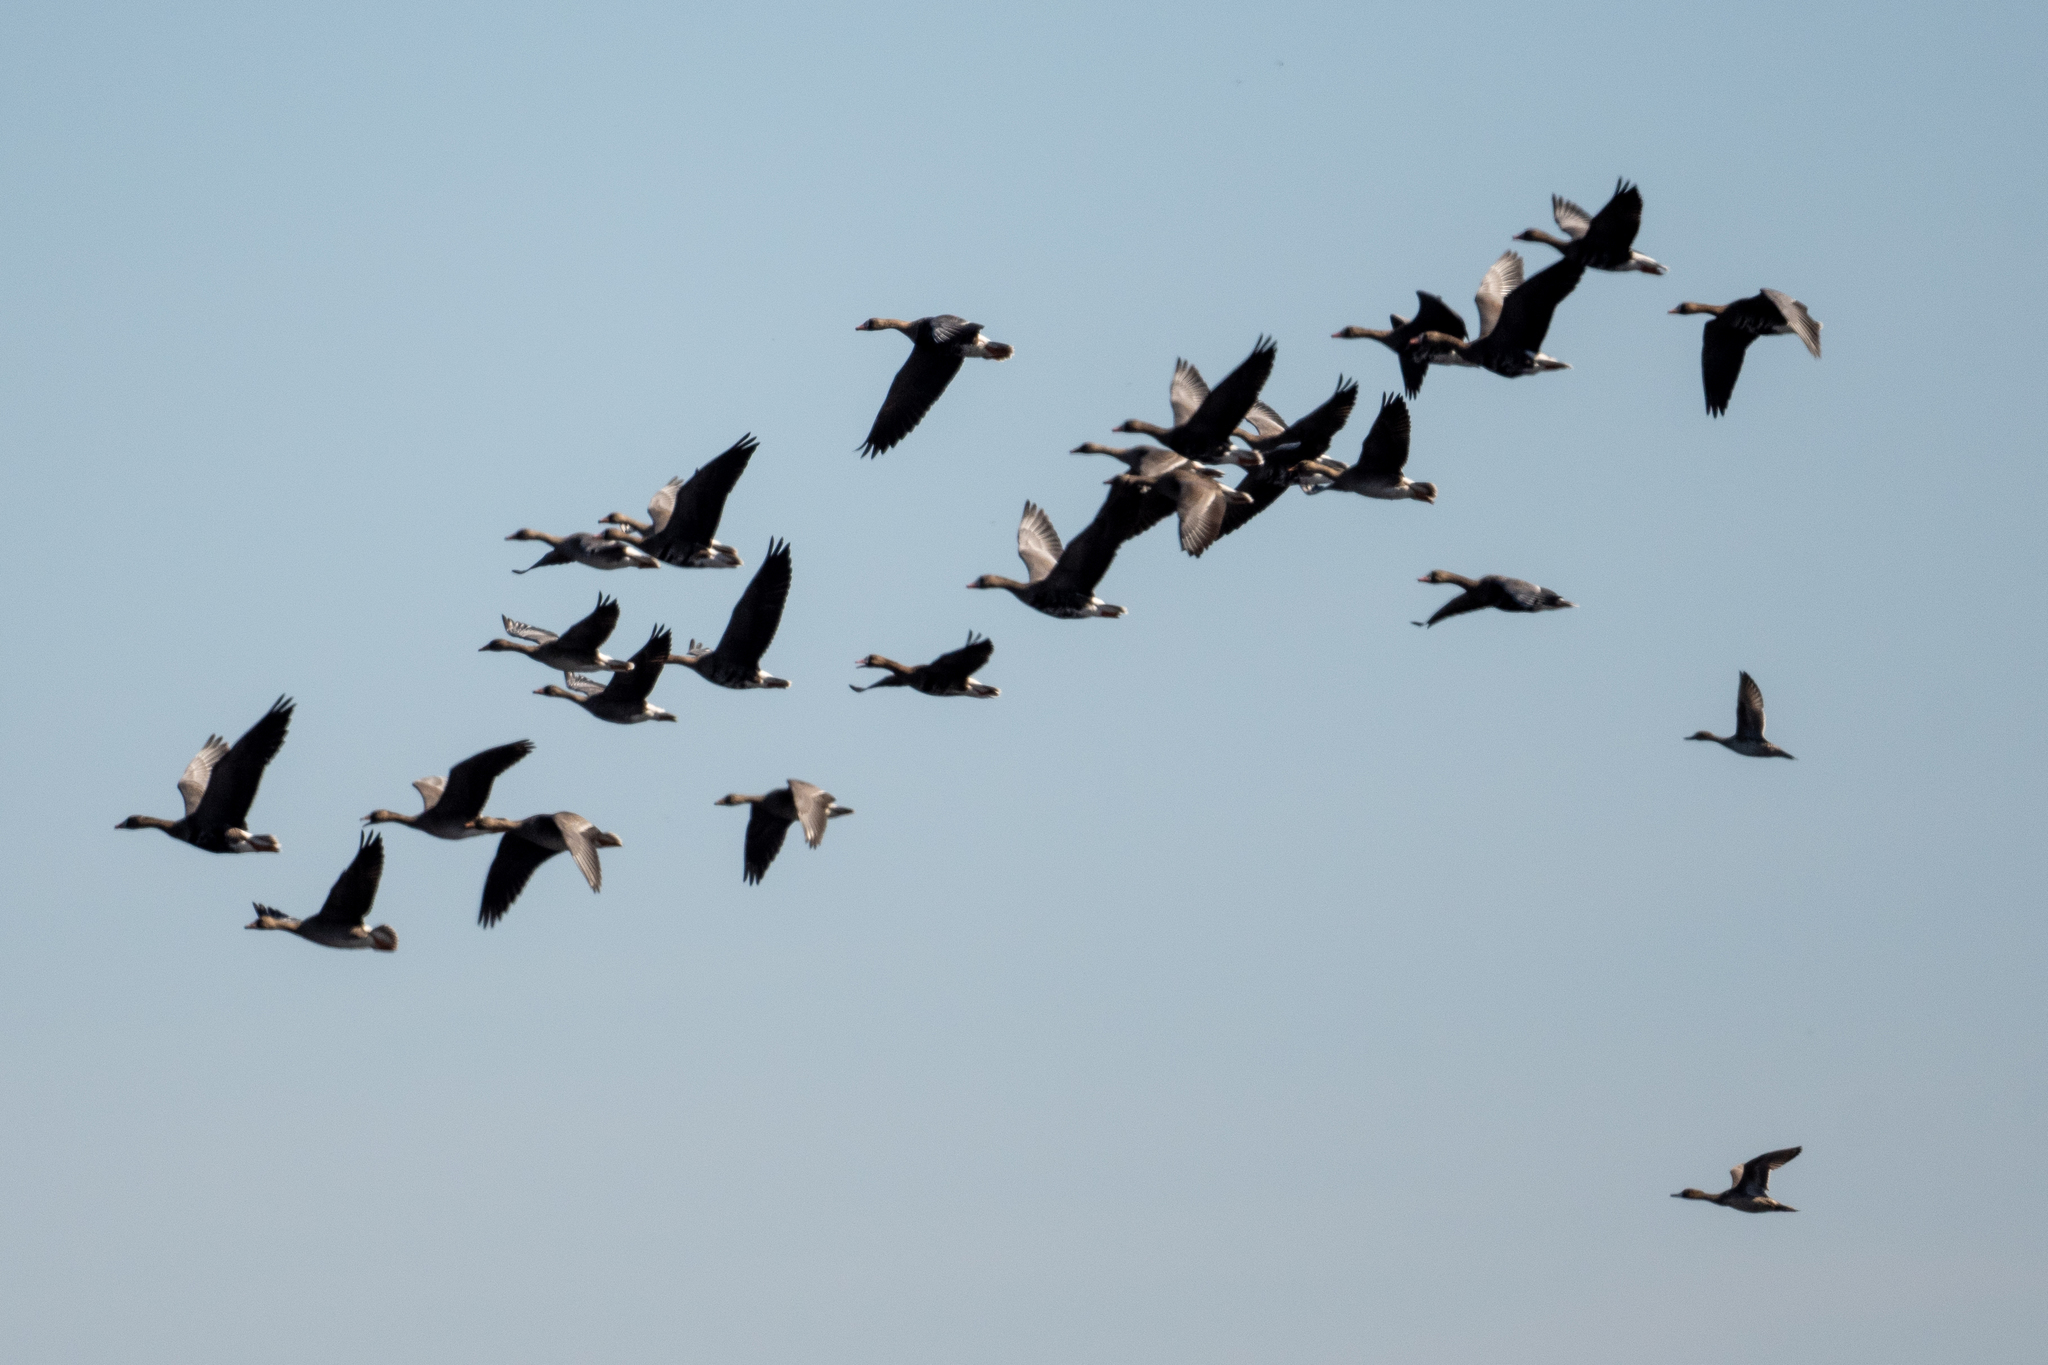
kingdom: Animalia
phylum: Chordata
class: Aves
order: Anseriformes
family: Anatidae
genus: Anser
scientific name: Anser albifrons
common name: Greater white-fronted goose
